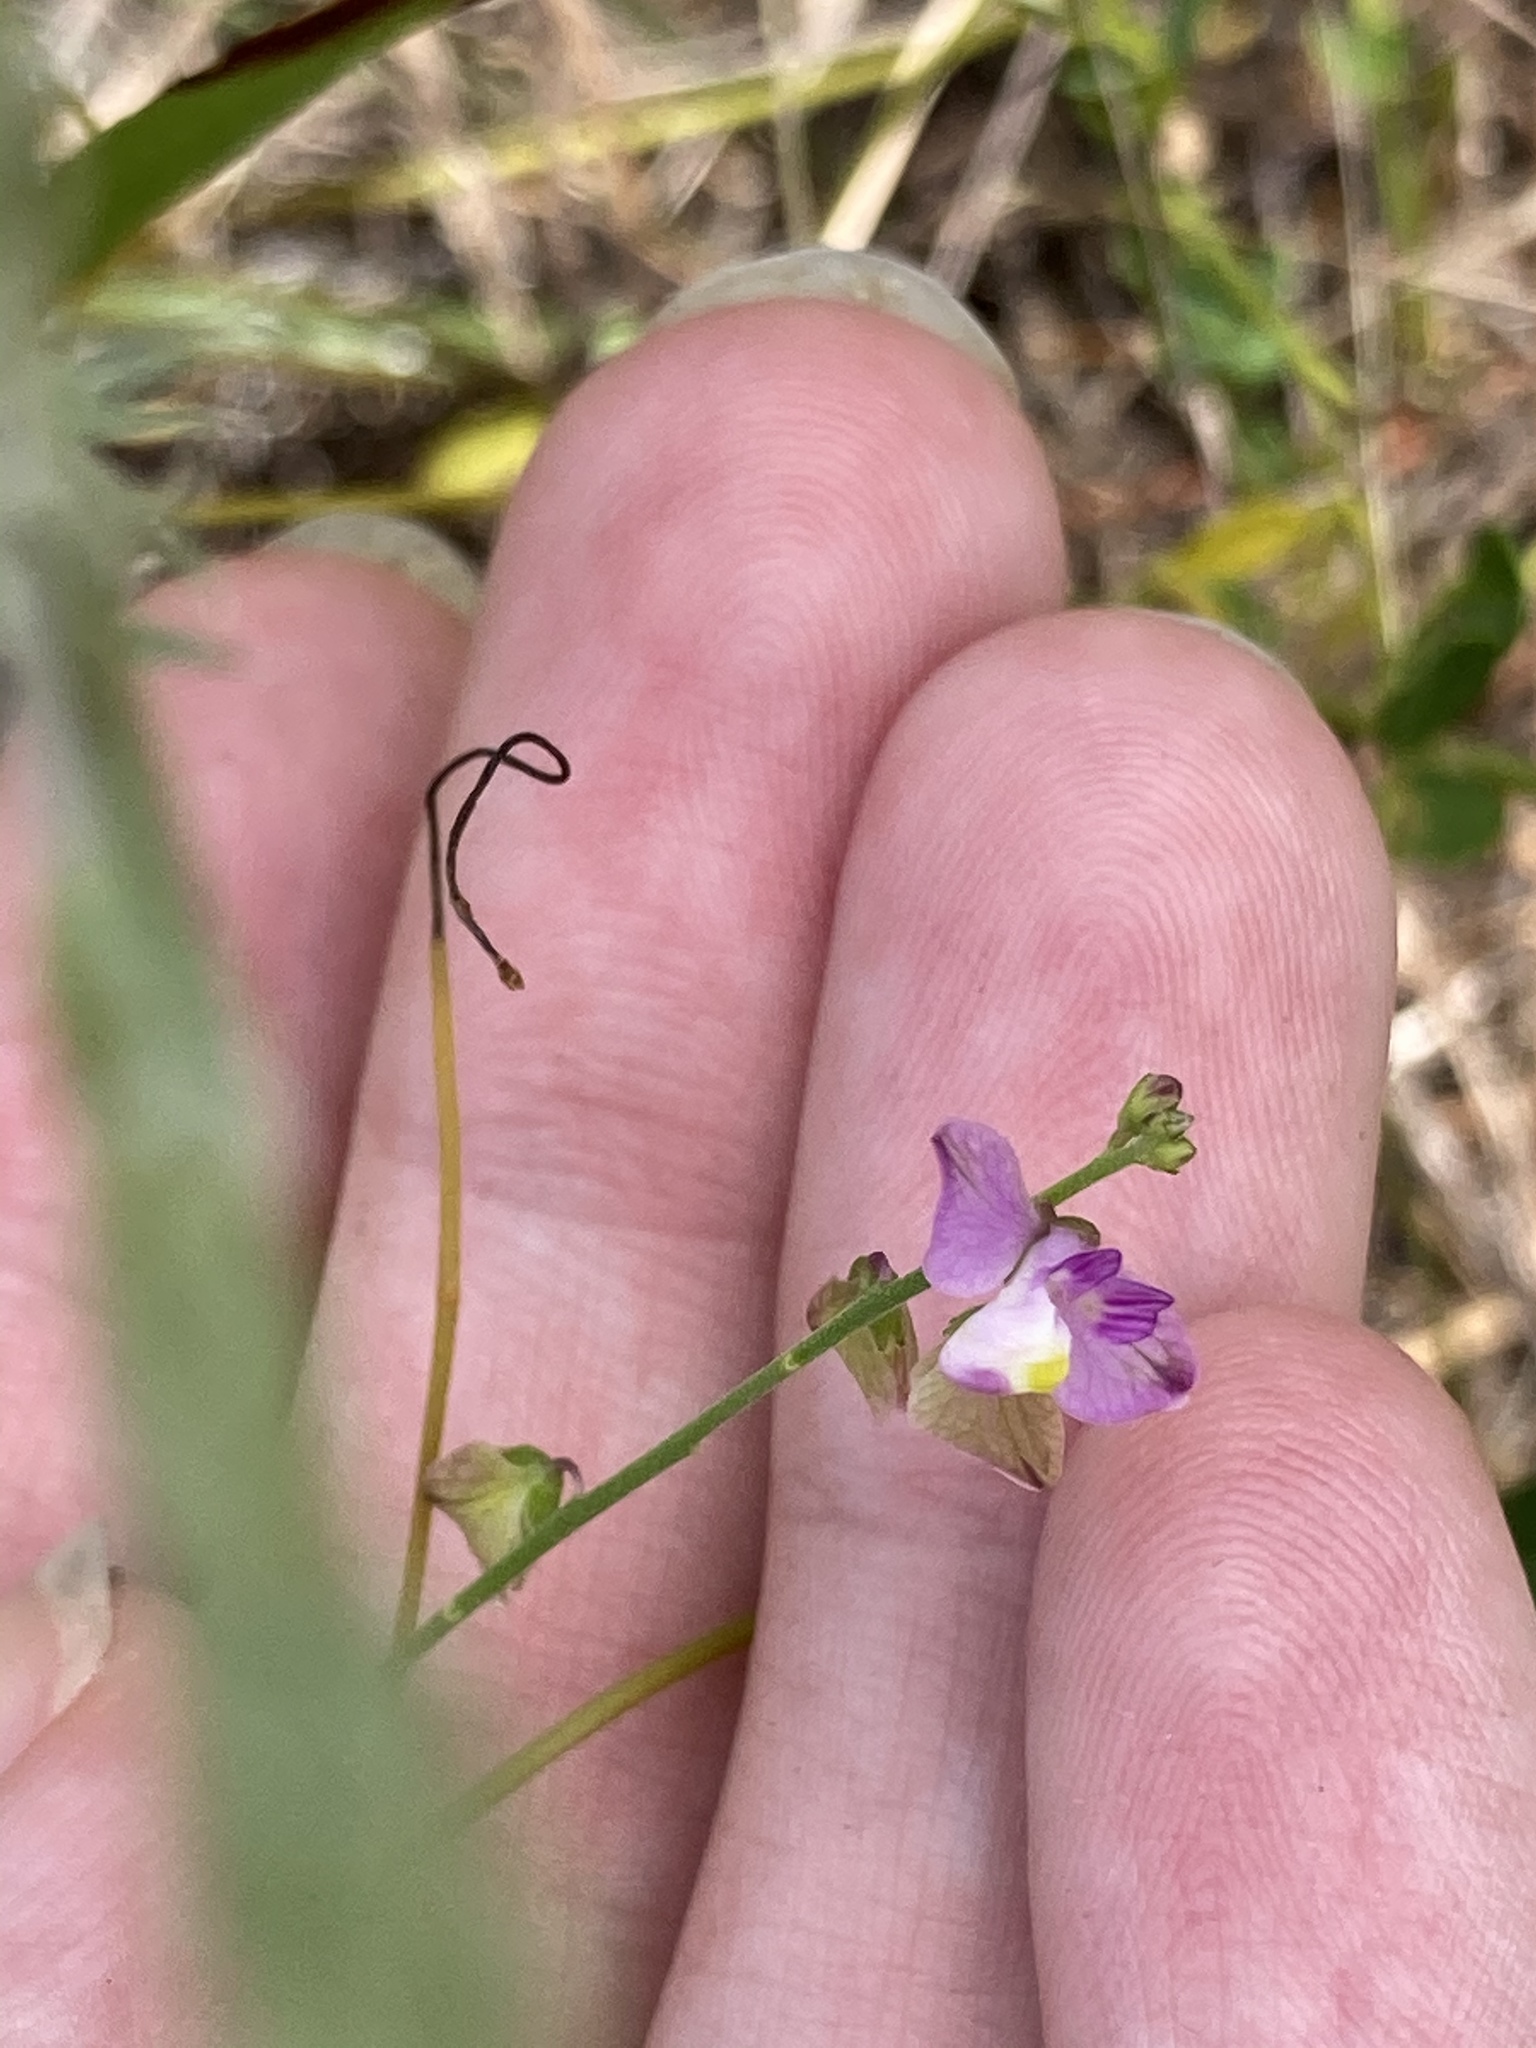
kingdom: Plantae
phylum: Tracheophyta
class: Magnoliopsida
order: Fabales
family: Polygalaceae
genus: Asemeia
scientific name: Asemeia grandiflora
